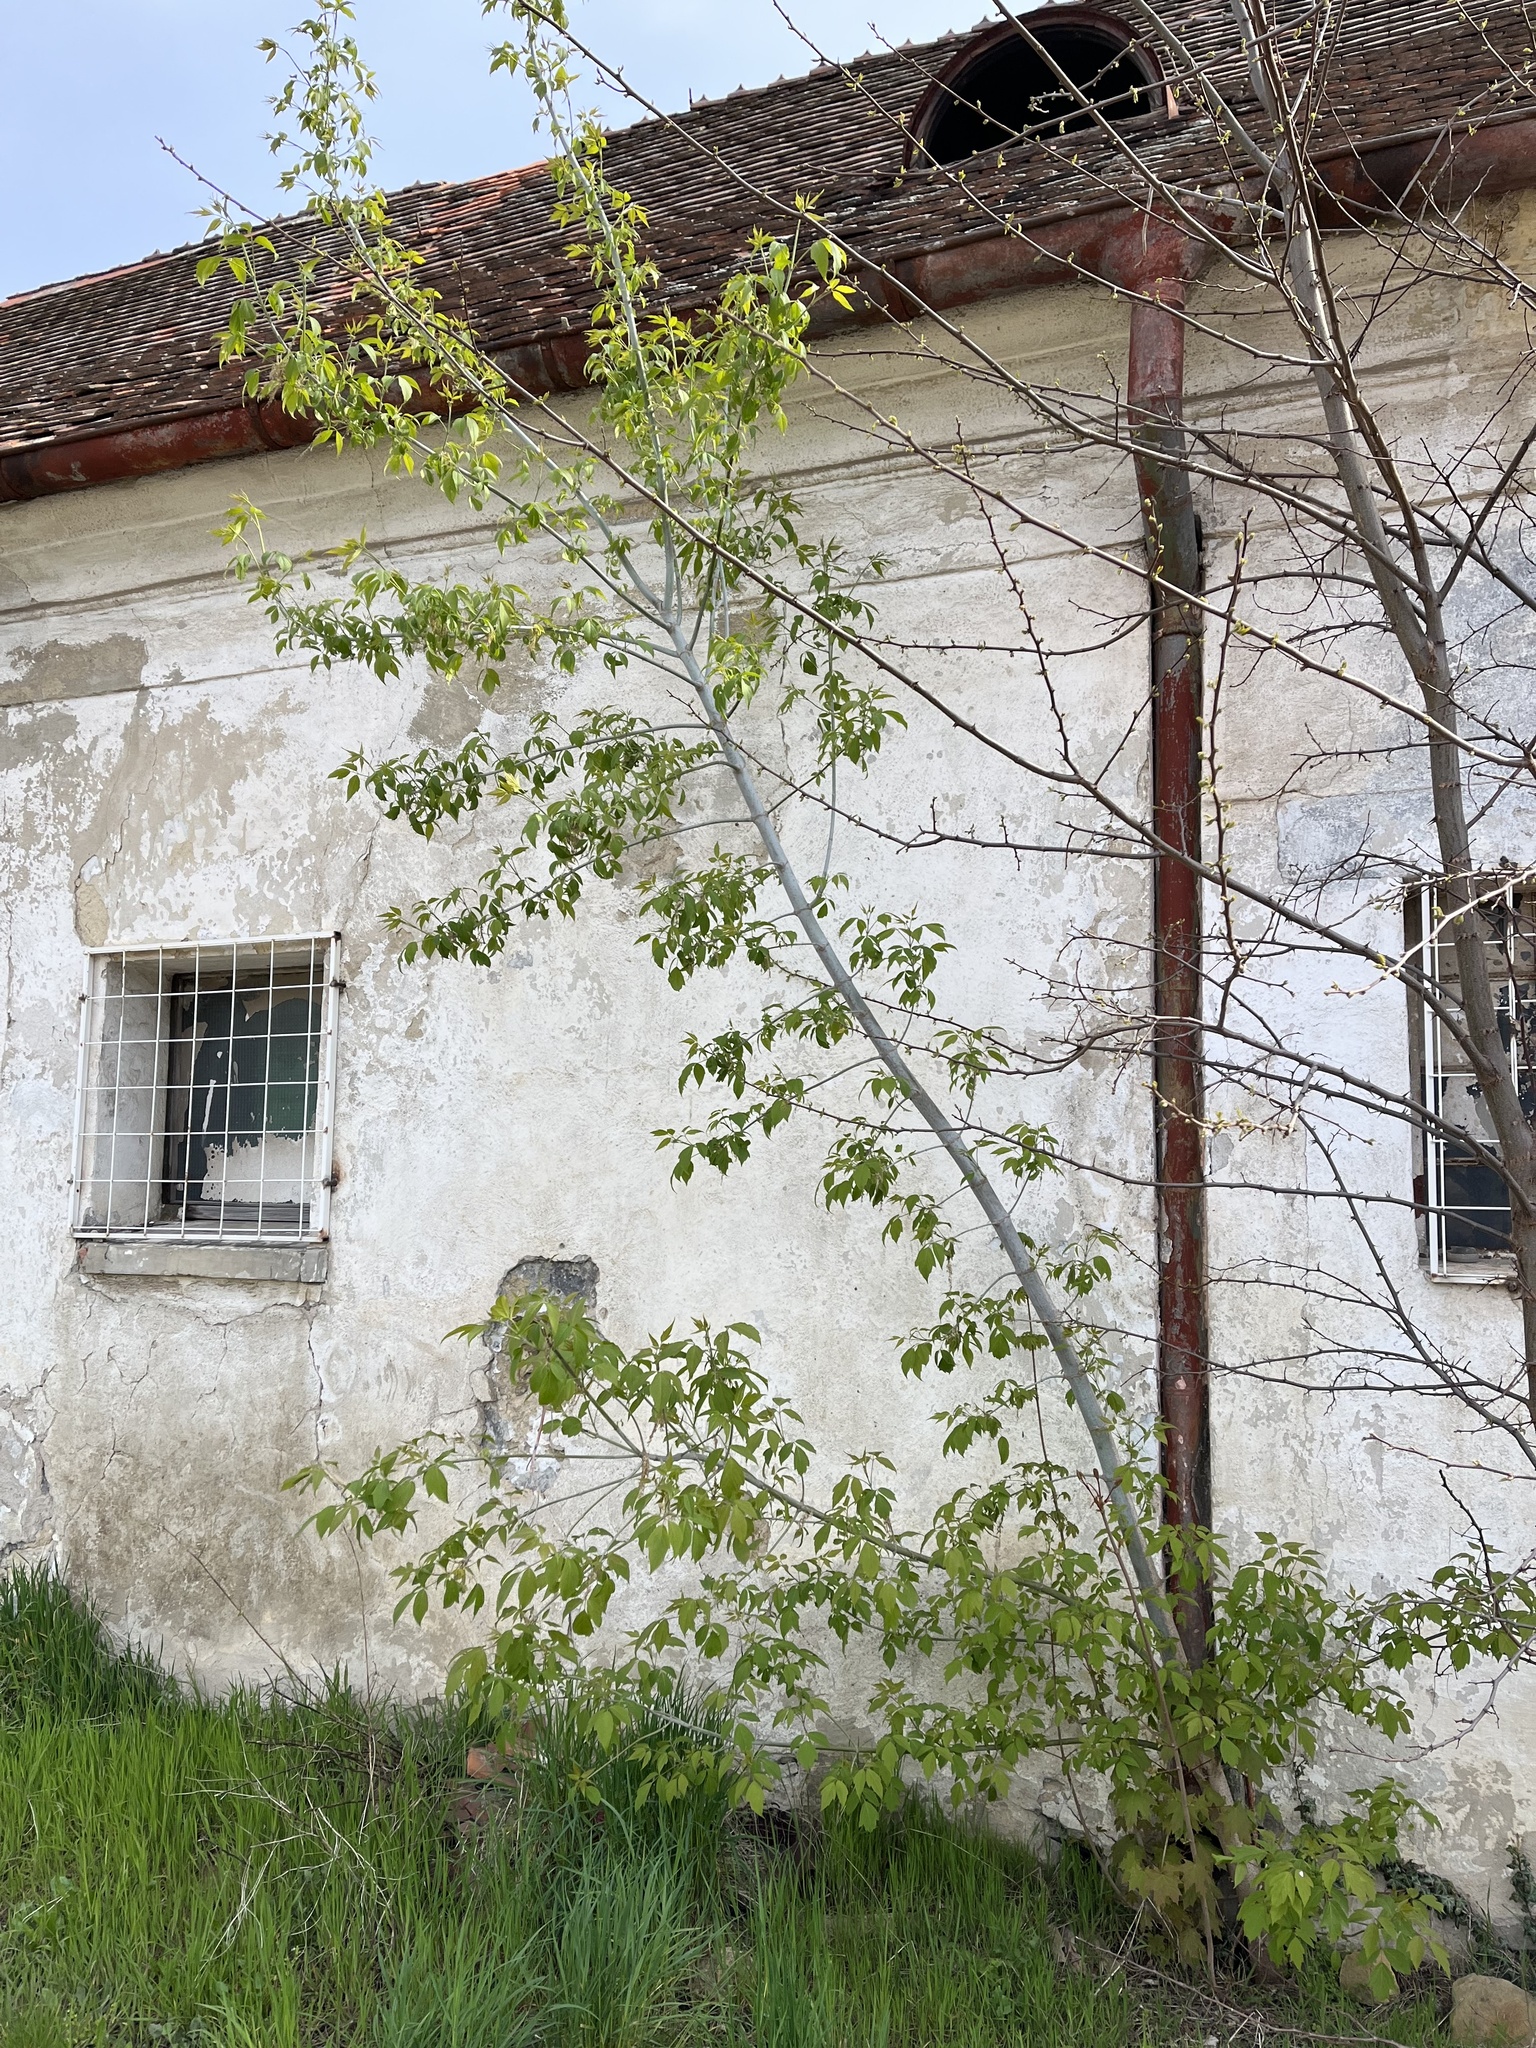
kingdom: Plantae
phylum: Tracheophyta
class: Magnoliopsida
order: Sapindales
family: Sapindaceae
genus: Acer
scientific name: Acer negundo
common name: Ashleaf maple
